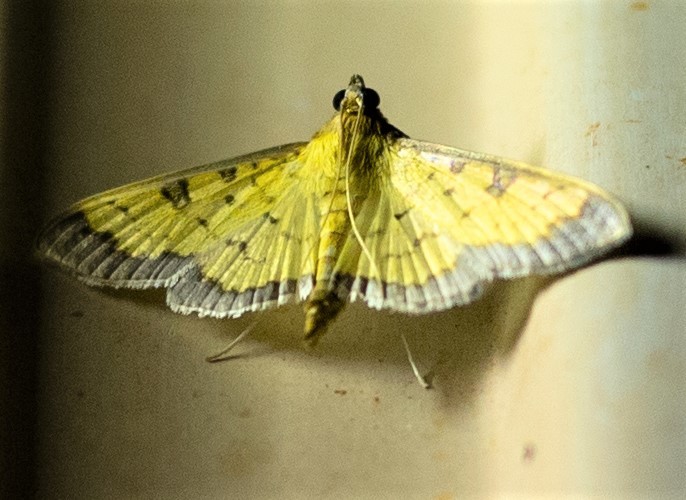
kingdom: Animalia
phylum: Arthropoda
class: Insecta
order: Lepidoptera
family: Crambidae
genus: Ategumia
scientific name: Ategumia matutinalis
